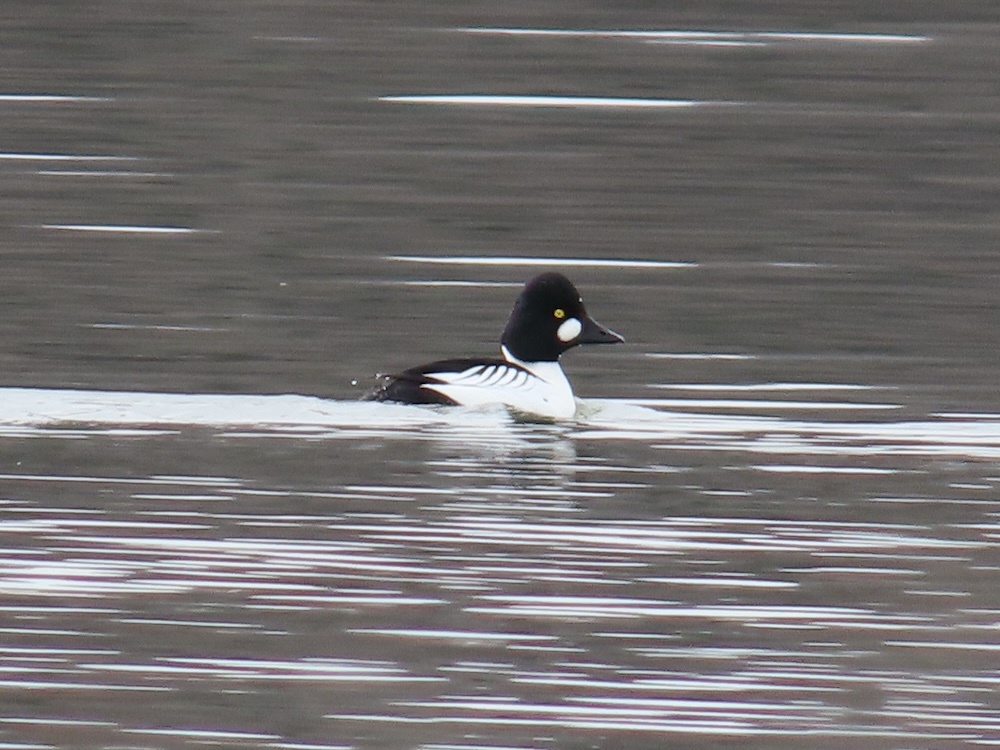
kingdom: Animalia
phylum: Chordata
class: Aves
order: Anseriformes
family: Anatidae
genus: Bucephala
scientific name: Bucephala clangula
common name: Common goldeneye
